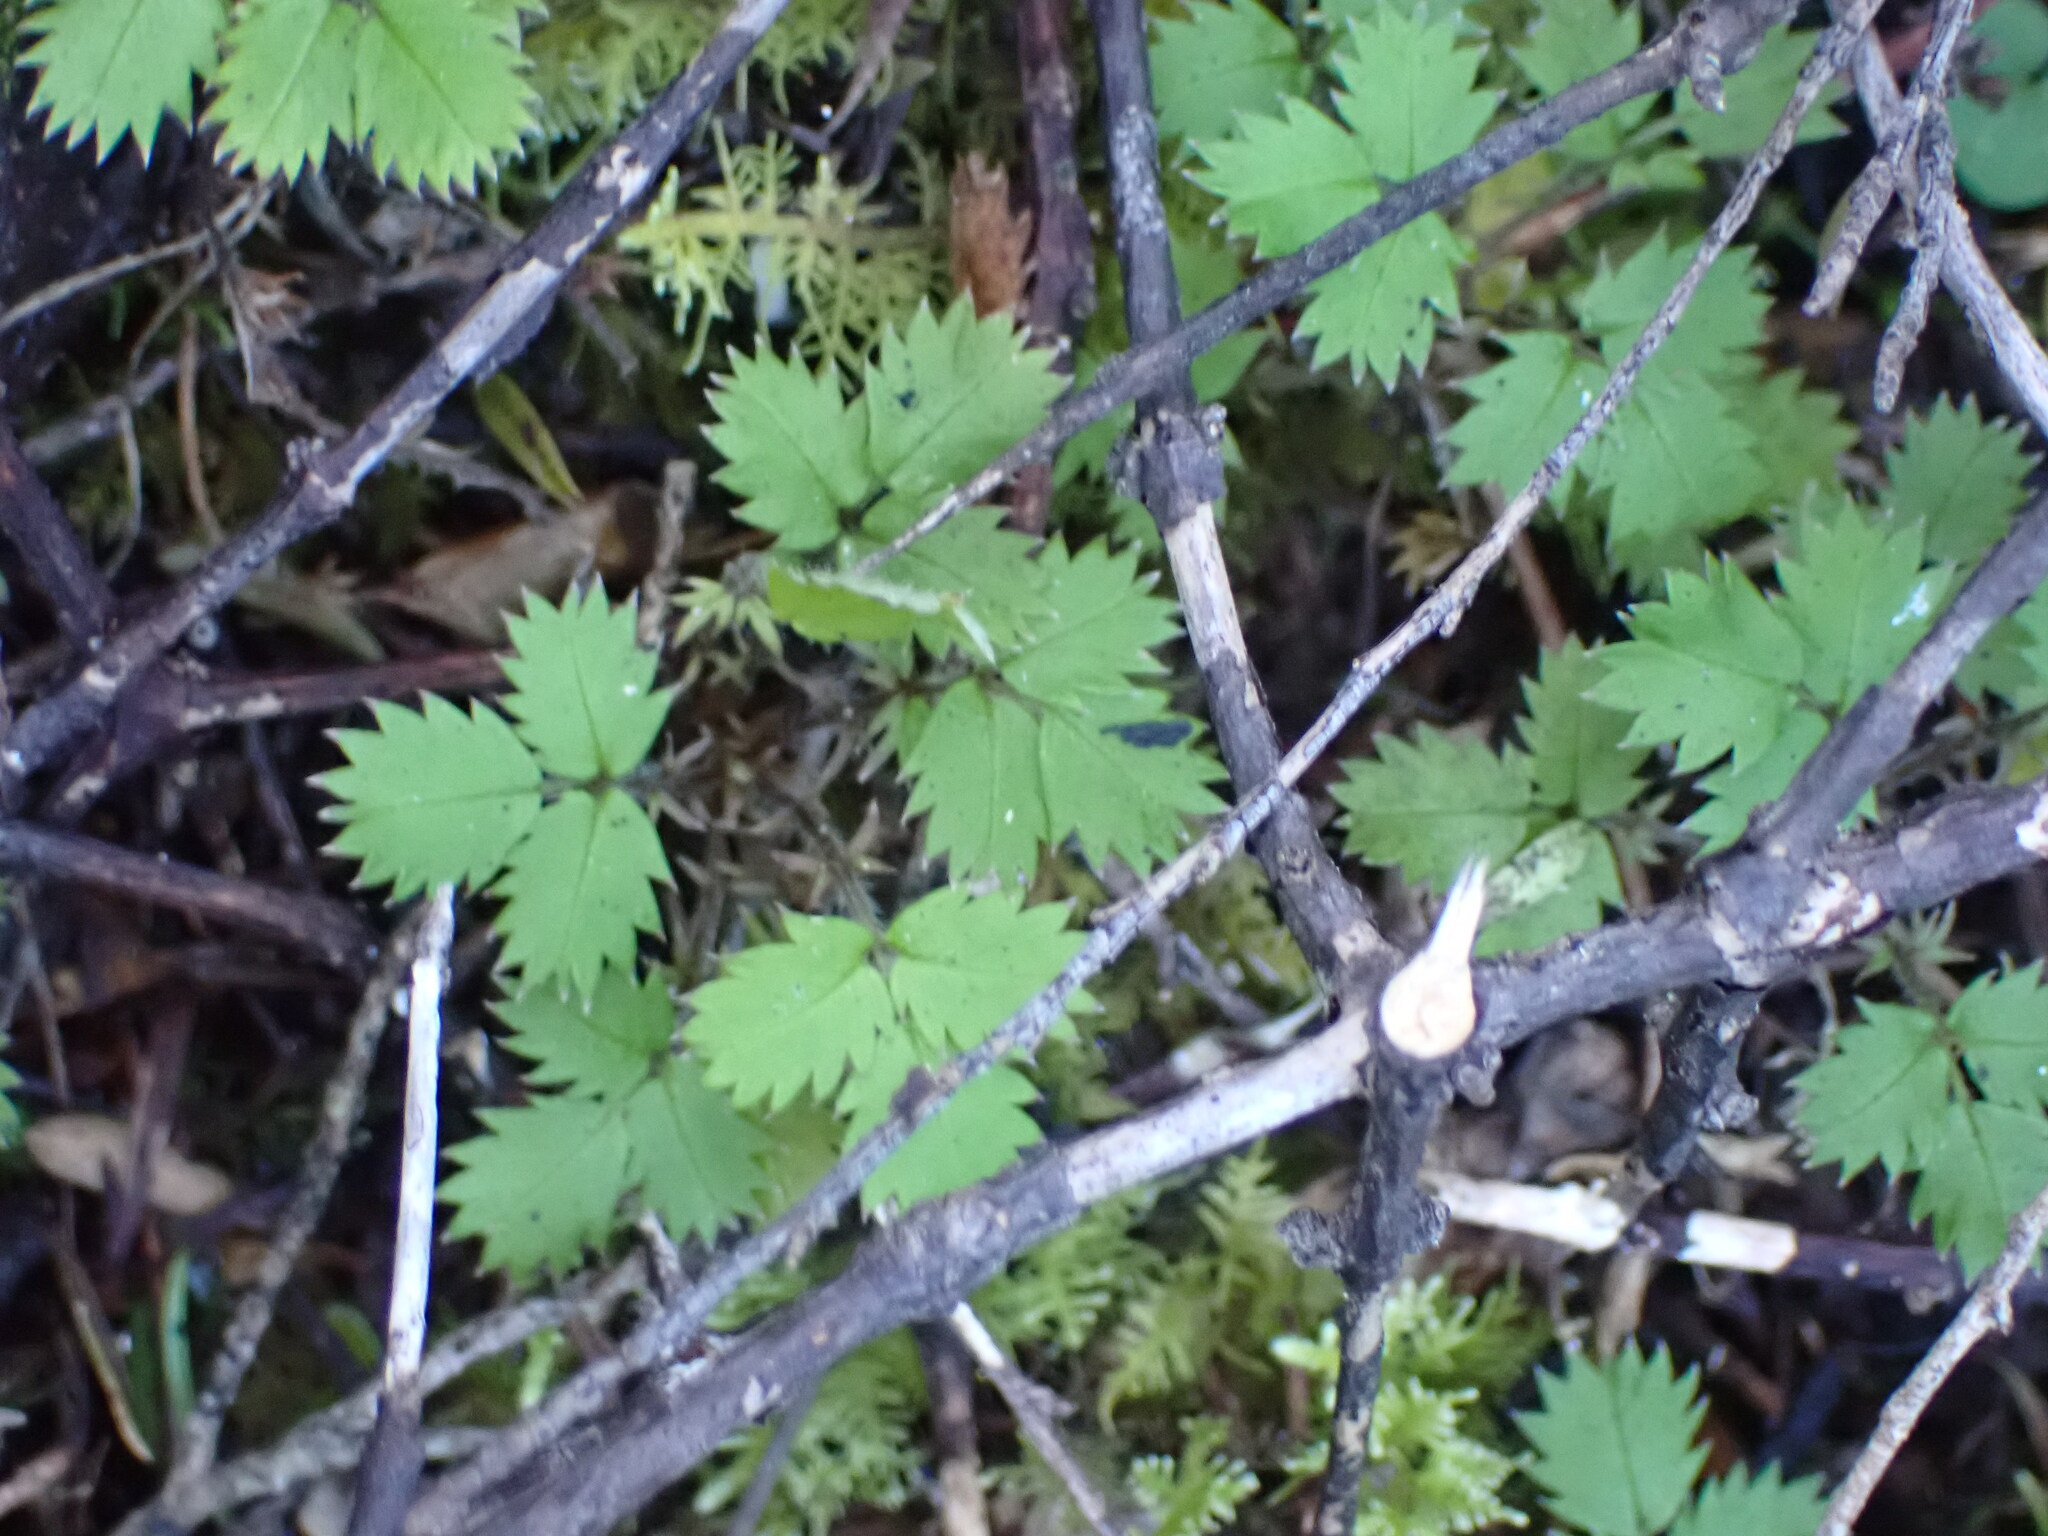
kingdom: Plantae
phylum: Tracheophyta
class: Magnoliopsida
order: Rosales
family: Rosaceae
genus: Acaena
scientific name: Acaena juvenca
